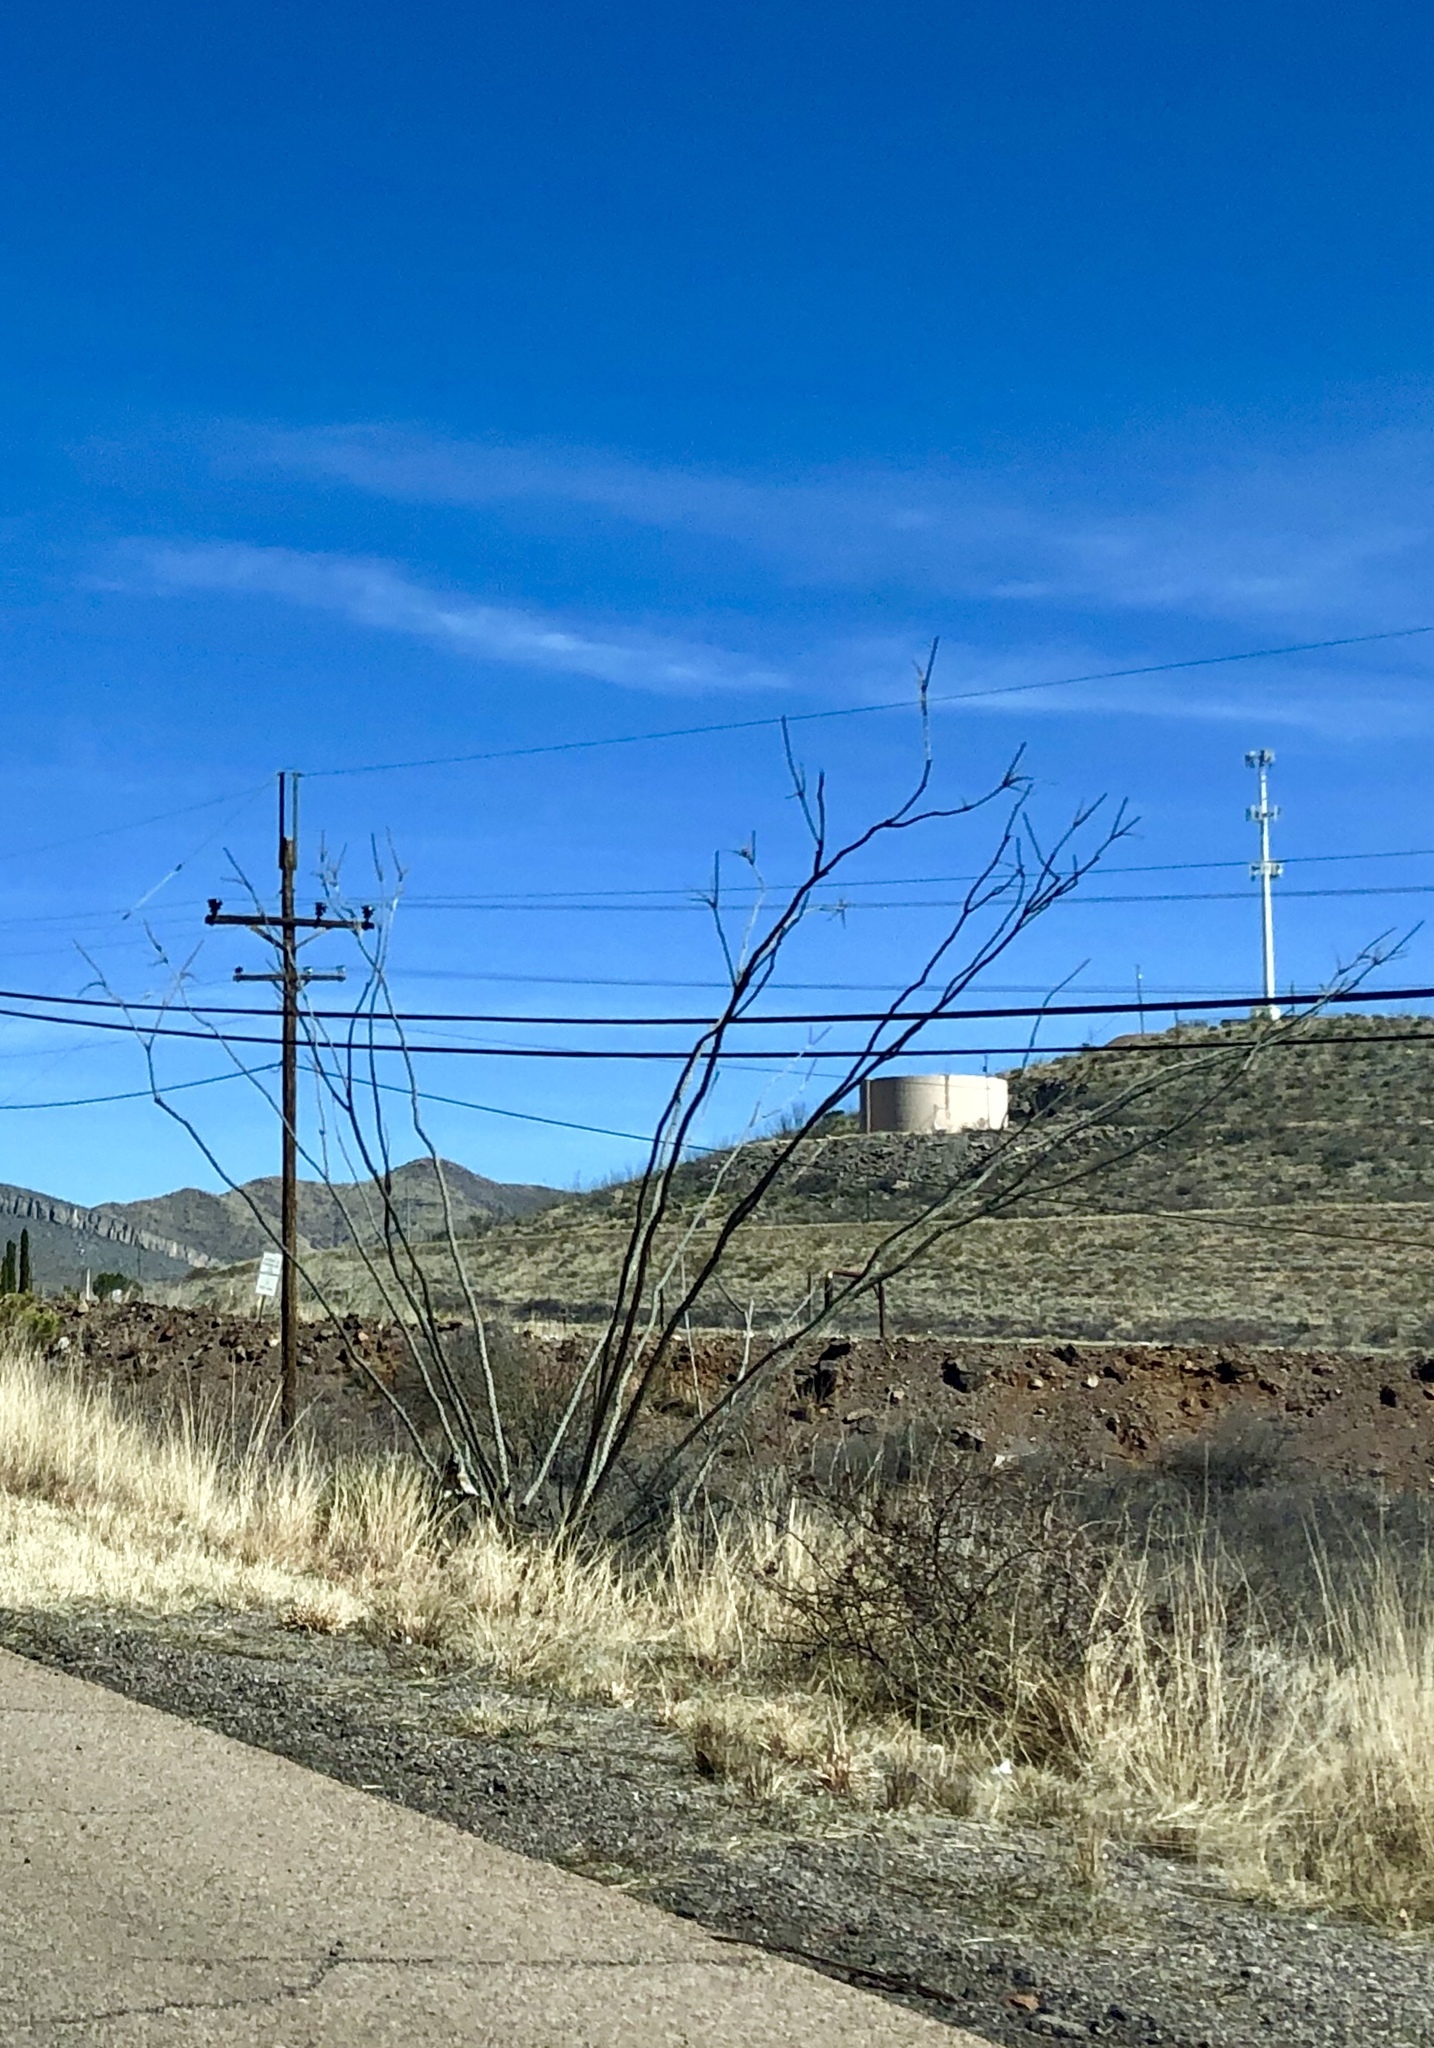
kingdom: Plantae
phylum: Tracheophyta
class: Magnoliopsida
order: Ericales
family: Fouquieriaceae
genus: Fouquieria
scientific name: Fouquieria splendens
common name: Vine-cactus
